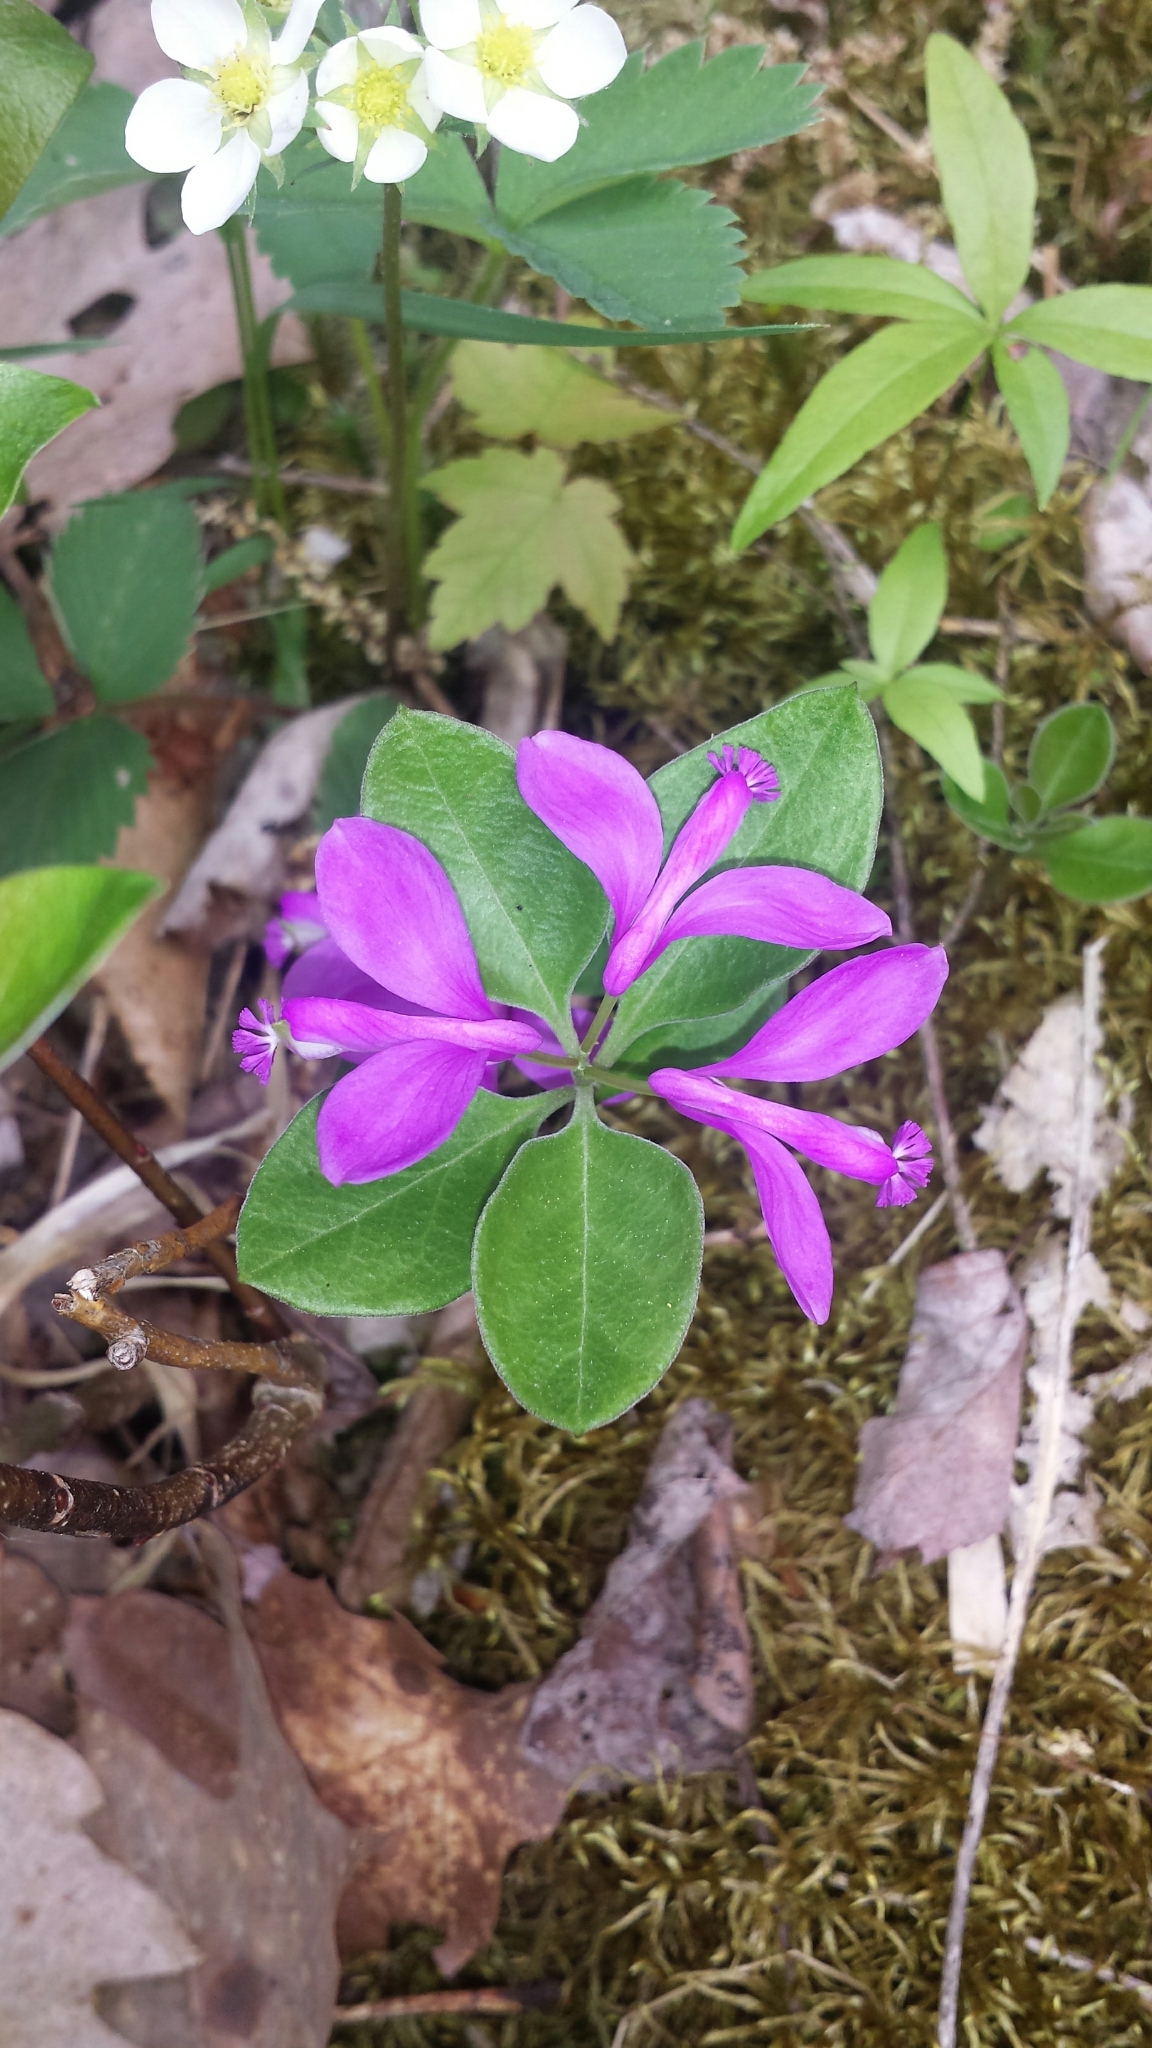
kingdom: Plantae
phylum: Tracheophyta
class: Magnoliopsida
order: Fabales
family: Polygalaceae
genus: Polygaloides
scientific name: Polygaloides paucifolia
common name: Bird-on-the-wing
